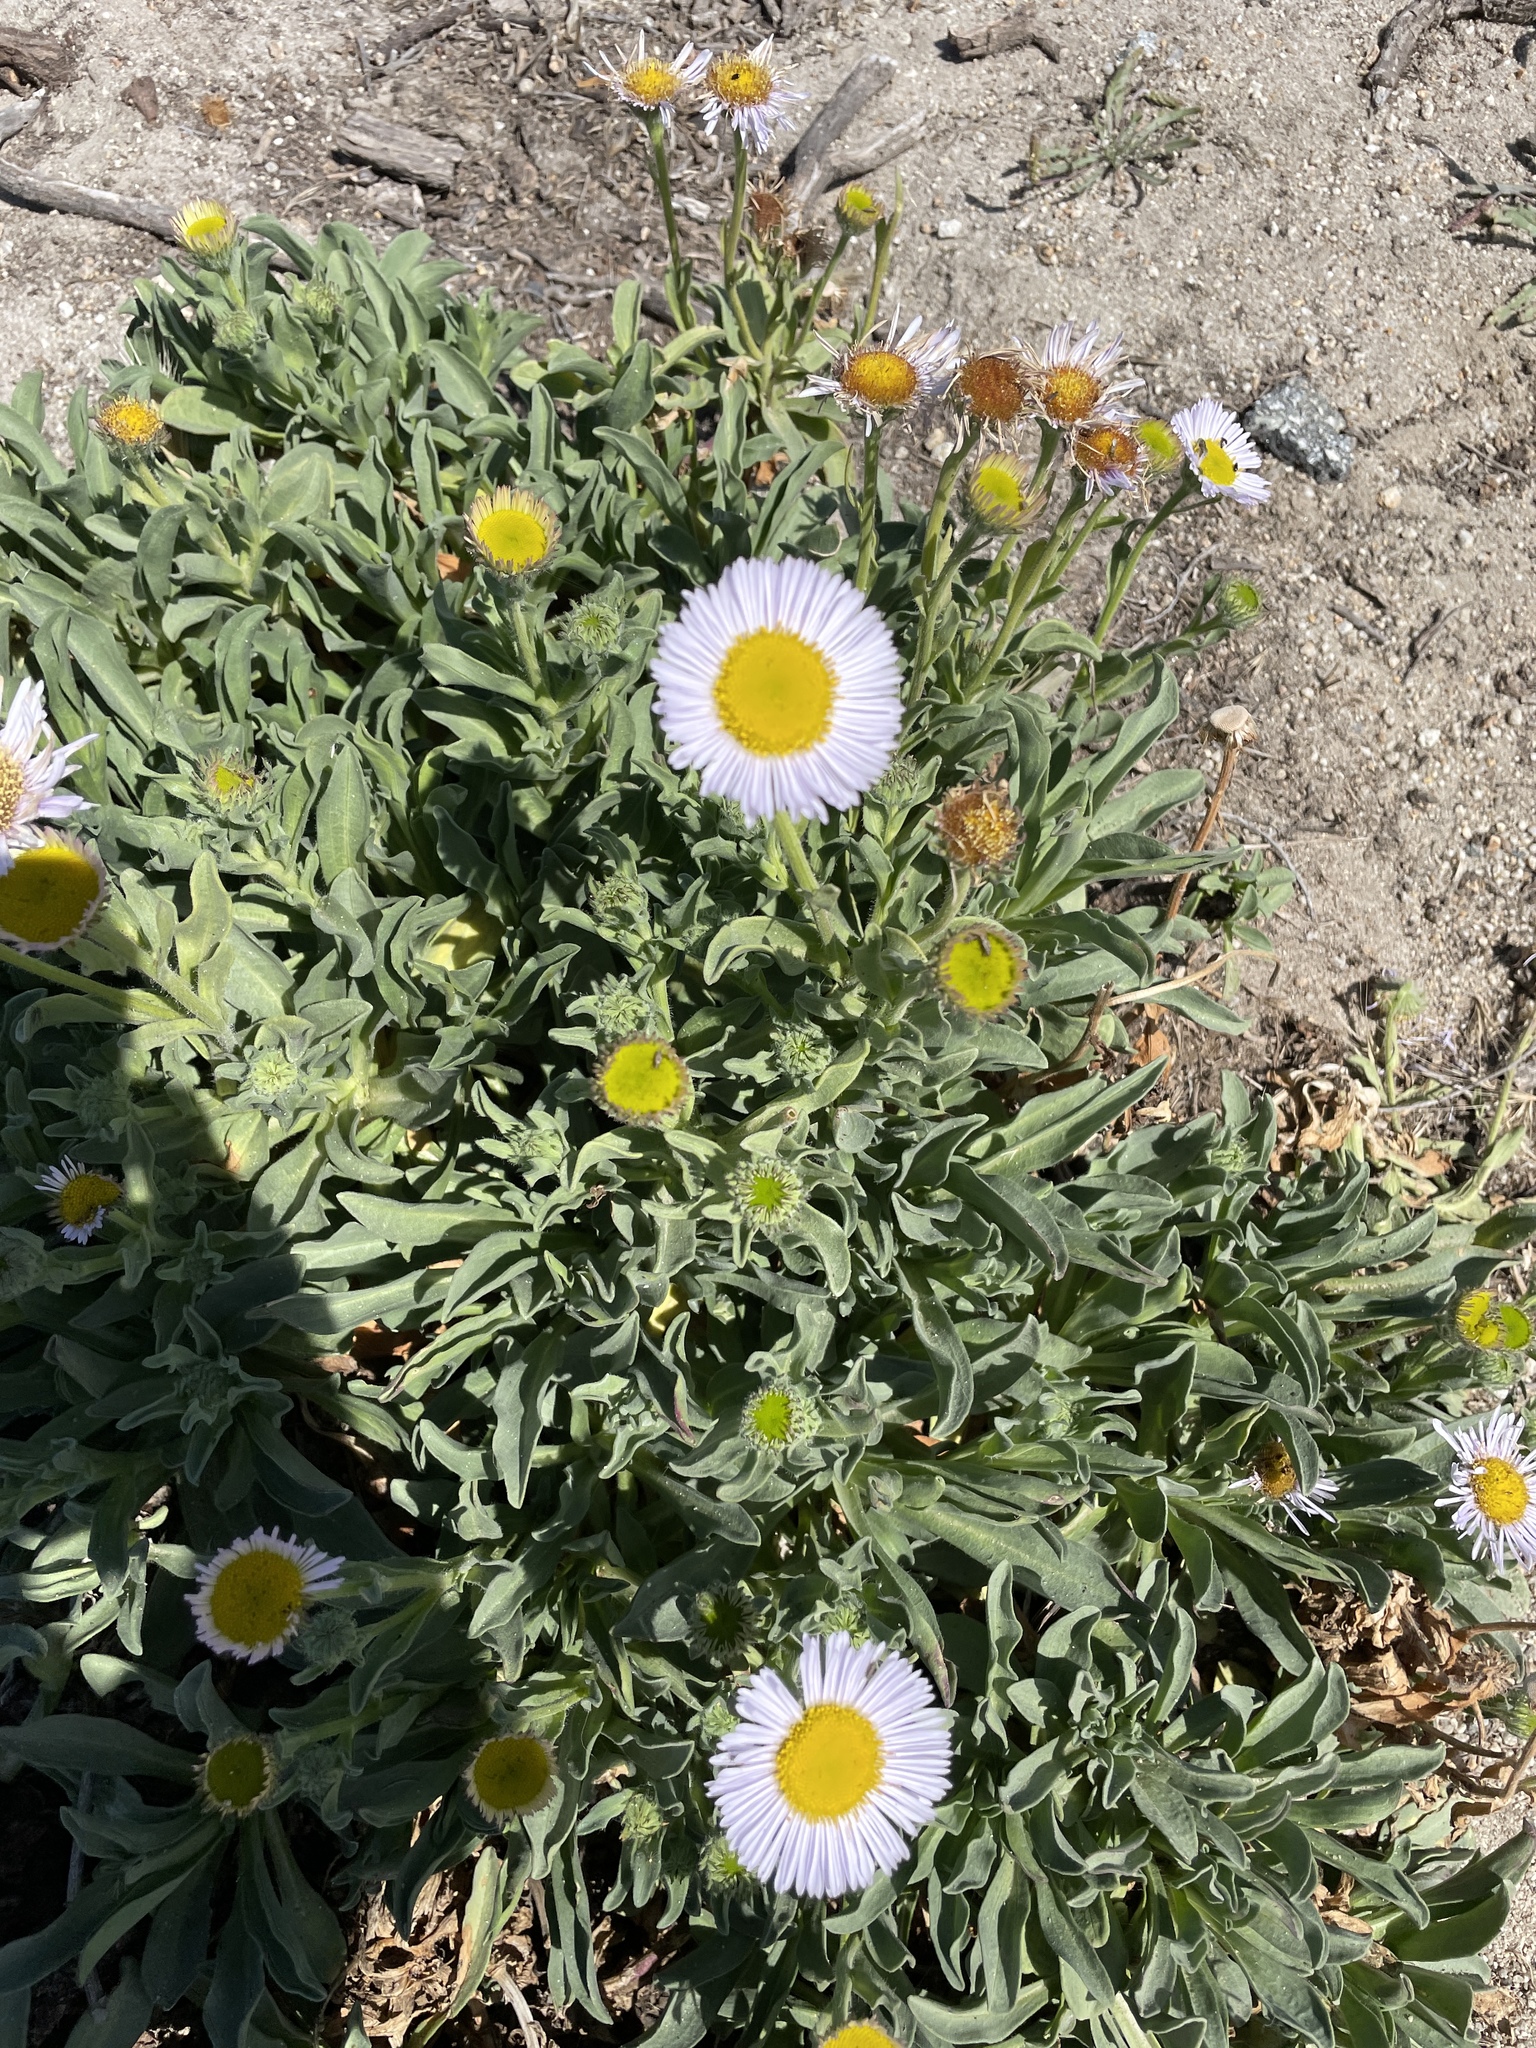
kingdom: Plantae
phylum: Tracheophyta
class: Magnoliopsida
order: Asterales
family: Asteraceae
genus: Erigeron
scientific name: Erigeron glaucus
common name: Seaside daisy
